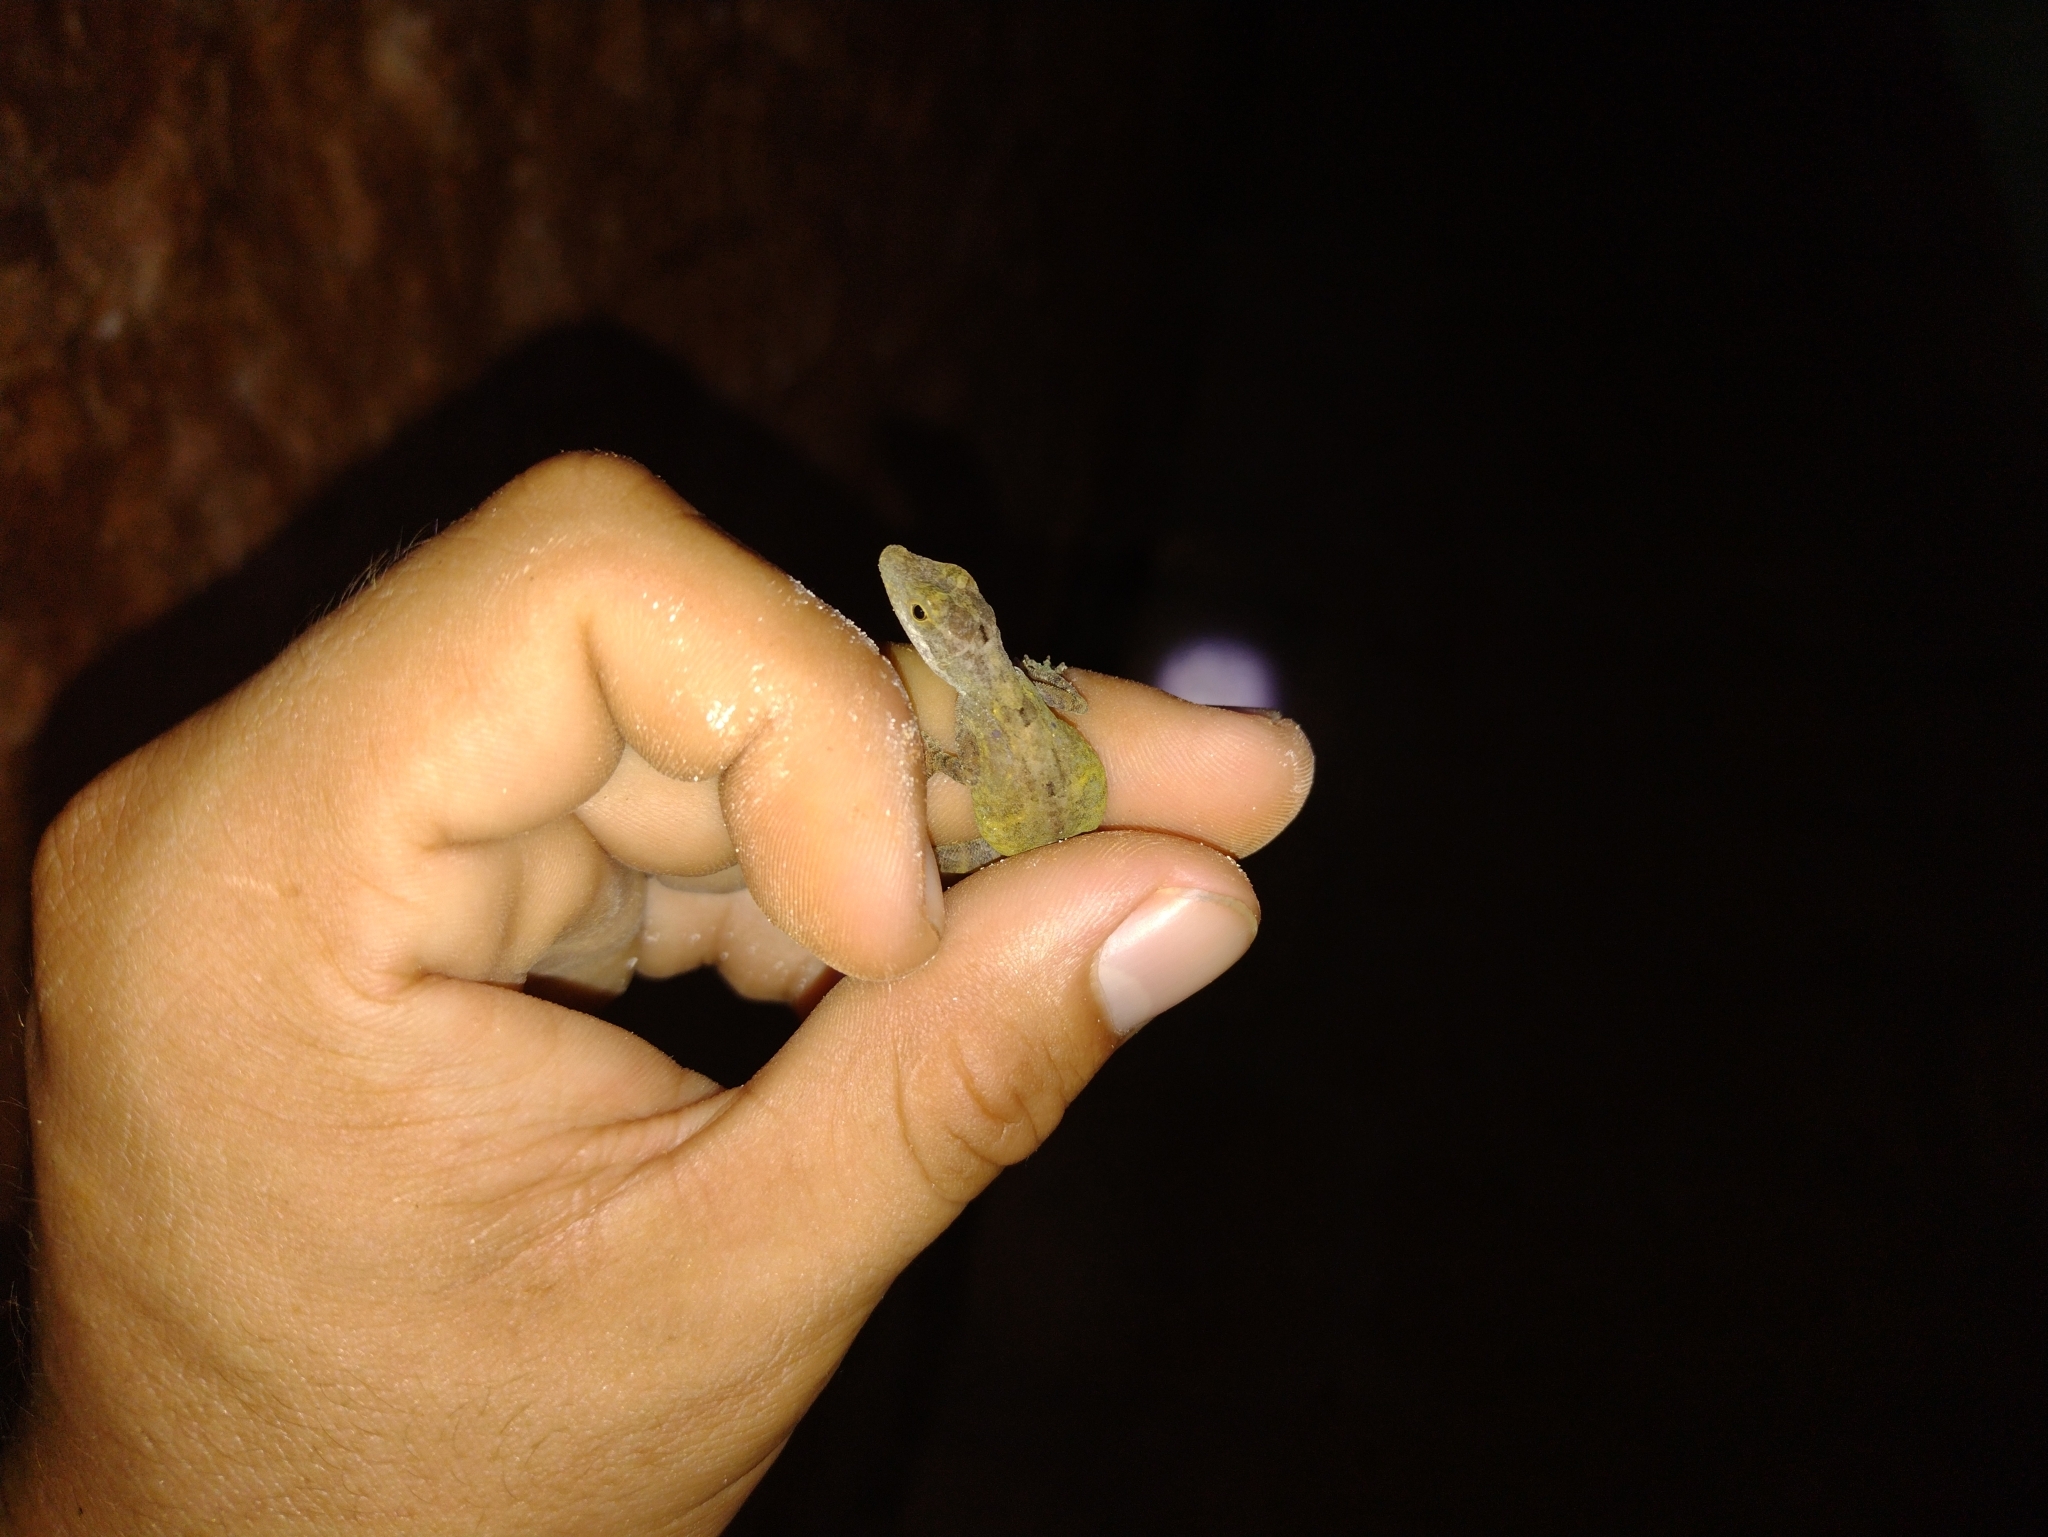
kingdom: Animalia
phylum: Chordata
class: Squamata
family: Dactyloidae
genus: Anolis
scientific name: Anolis rodriguezii
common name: Middle american smooth anole
